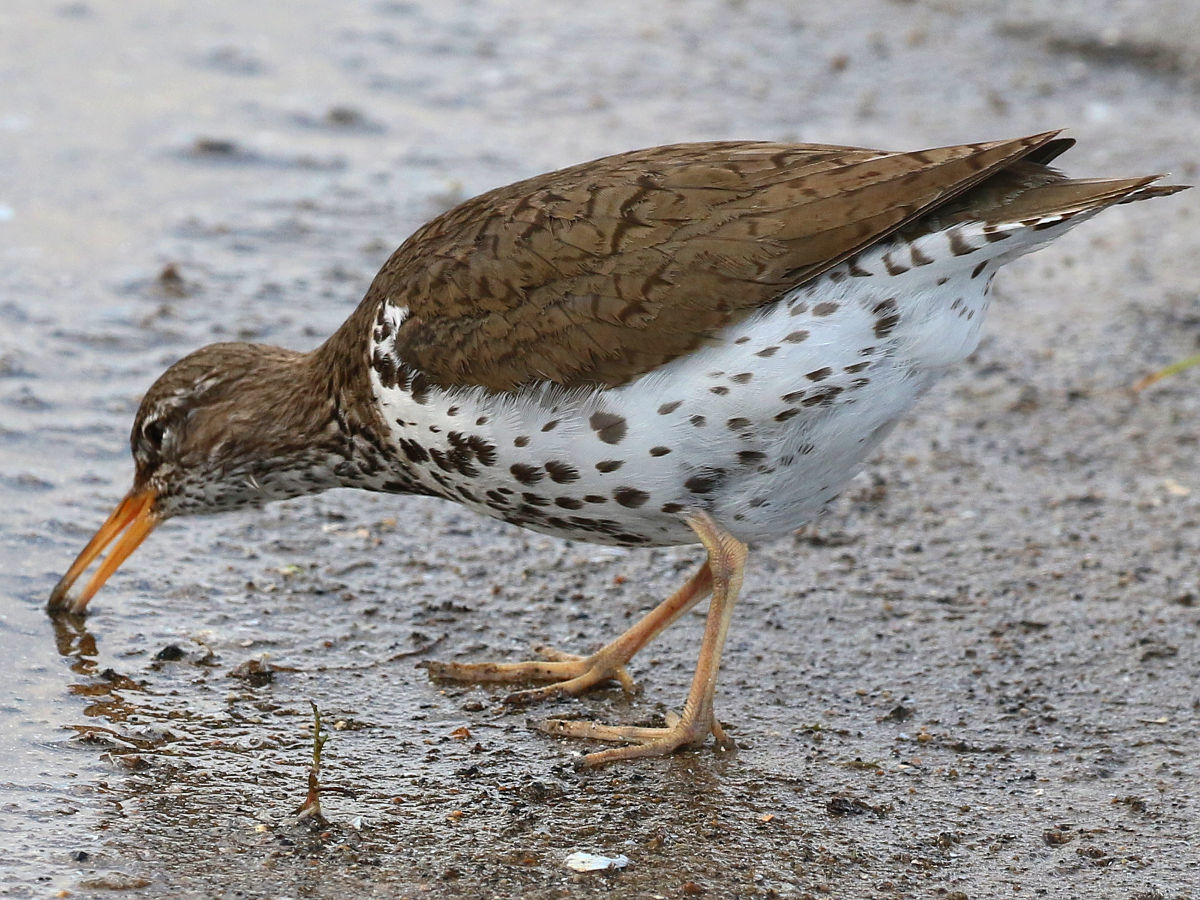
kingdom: Animalia
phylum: Chordata
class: Aves
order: Charadriiformes
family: Scolopacidae
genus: Actitis
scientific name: Actitis macularius
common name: Spotted sandpiper
